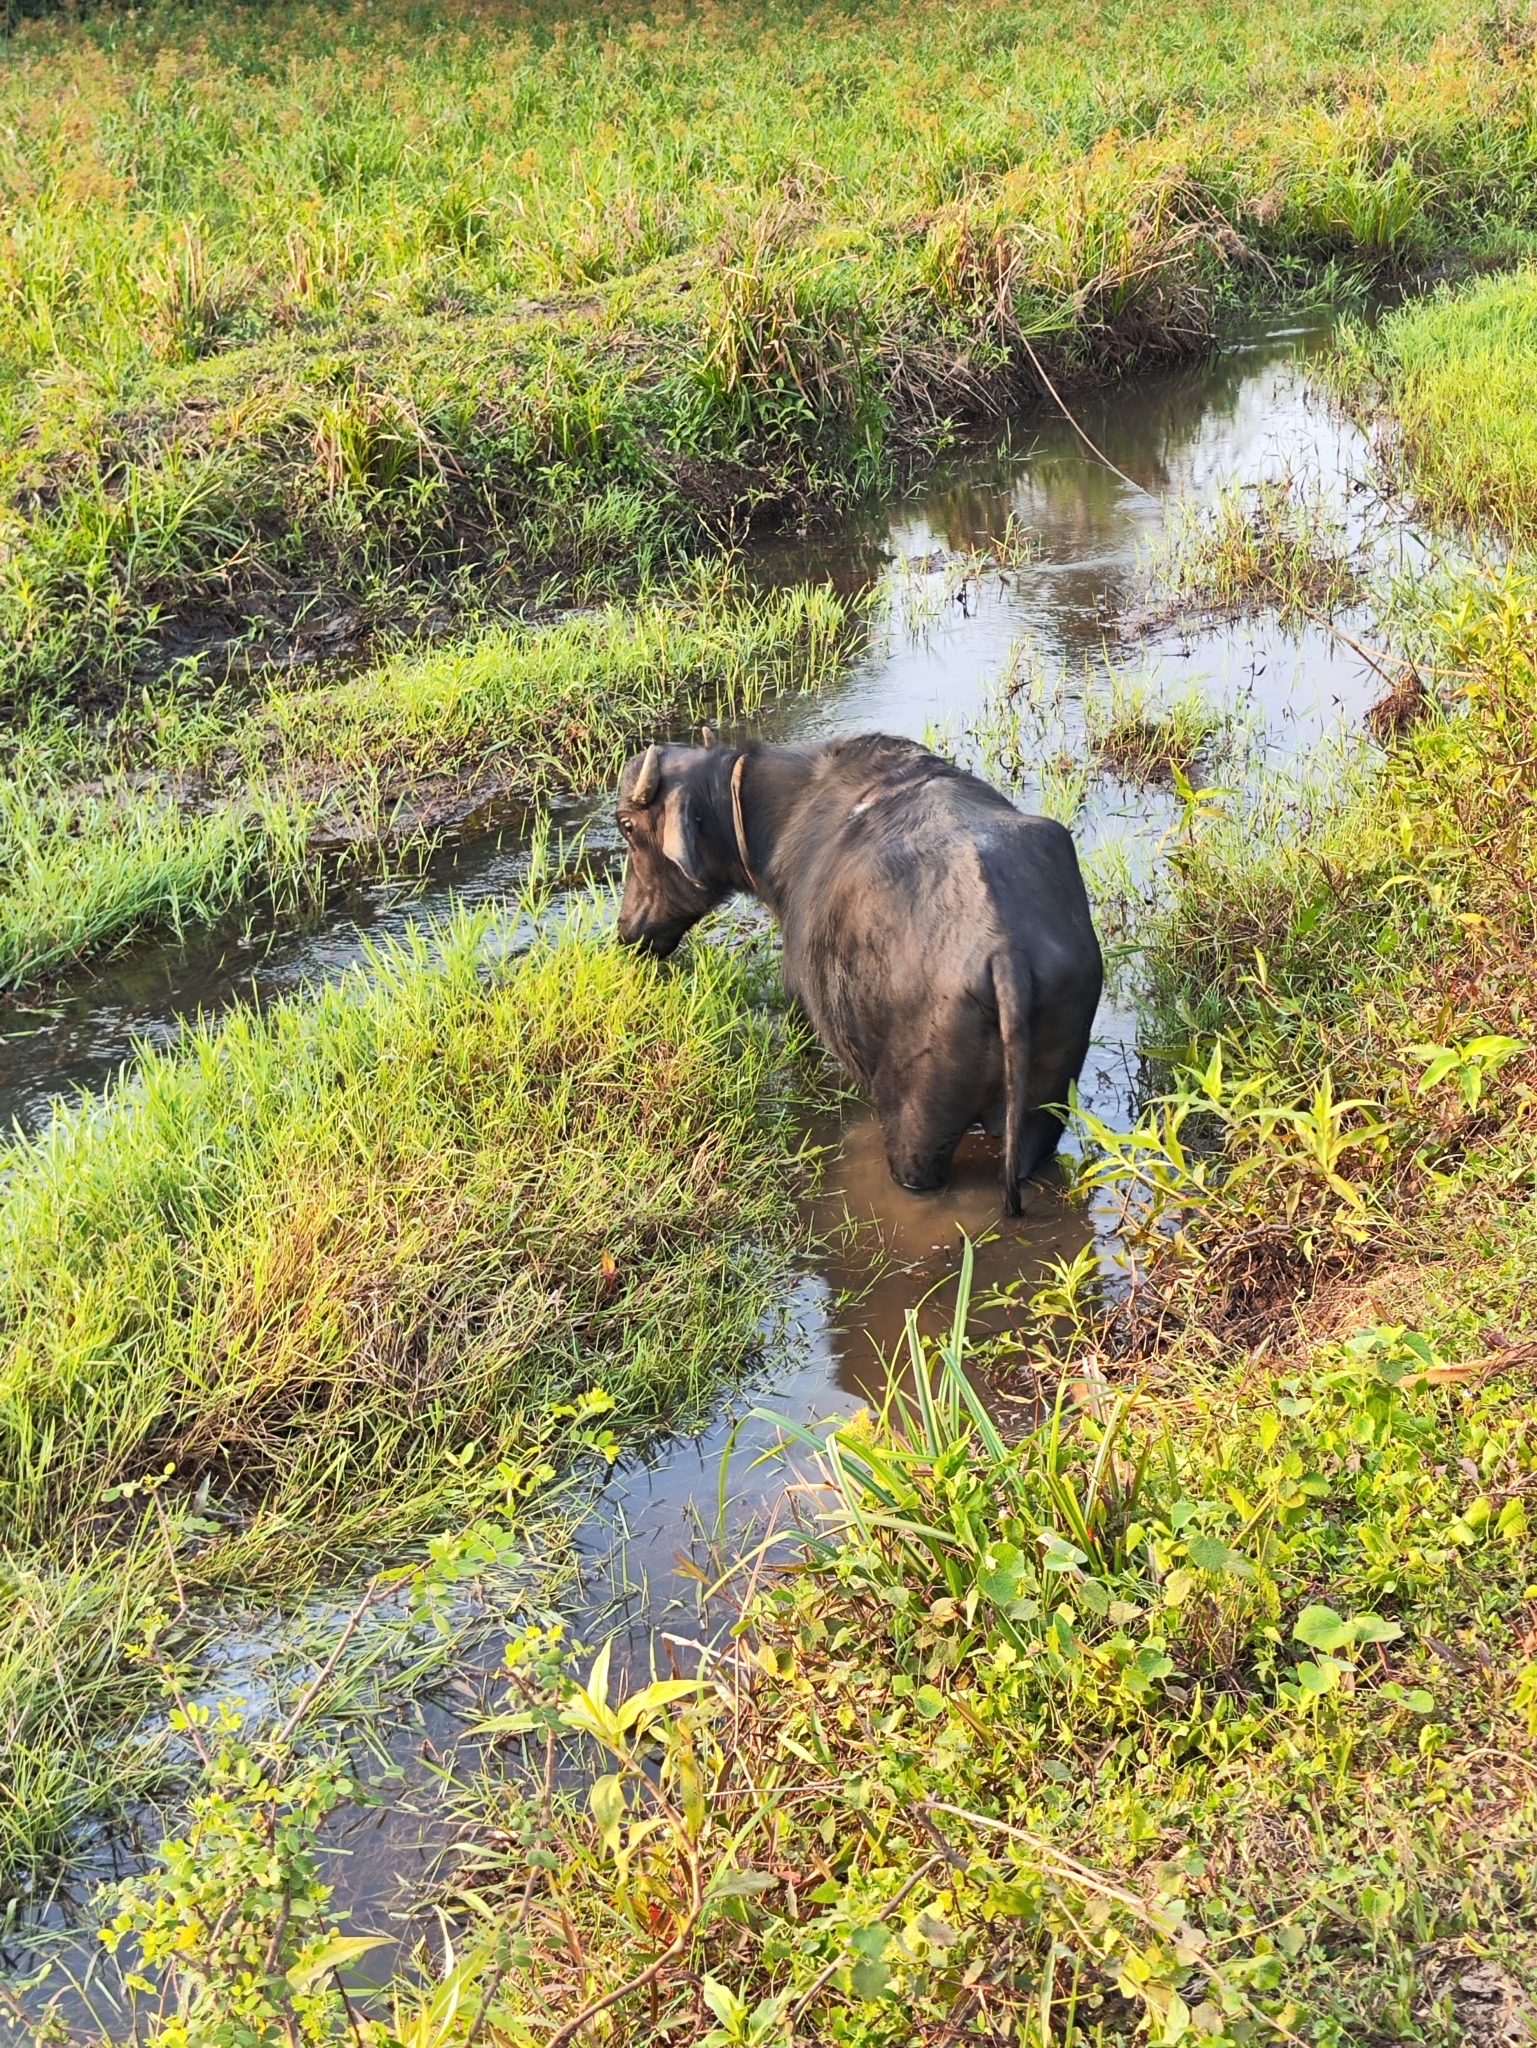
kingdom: Animalia
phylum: Chordata
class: Mammalia
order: Artiodactyla
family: Bovidae
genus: Bubalus
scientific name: Bubalus bubalis
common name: Water buffalo
